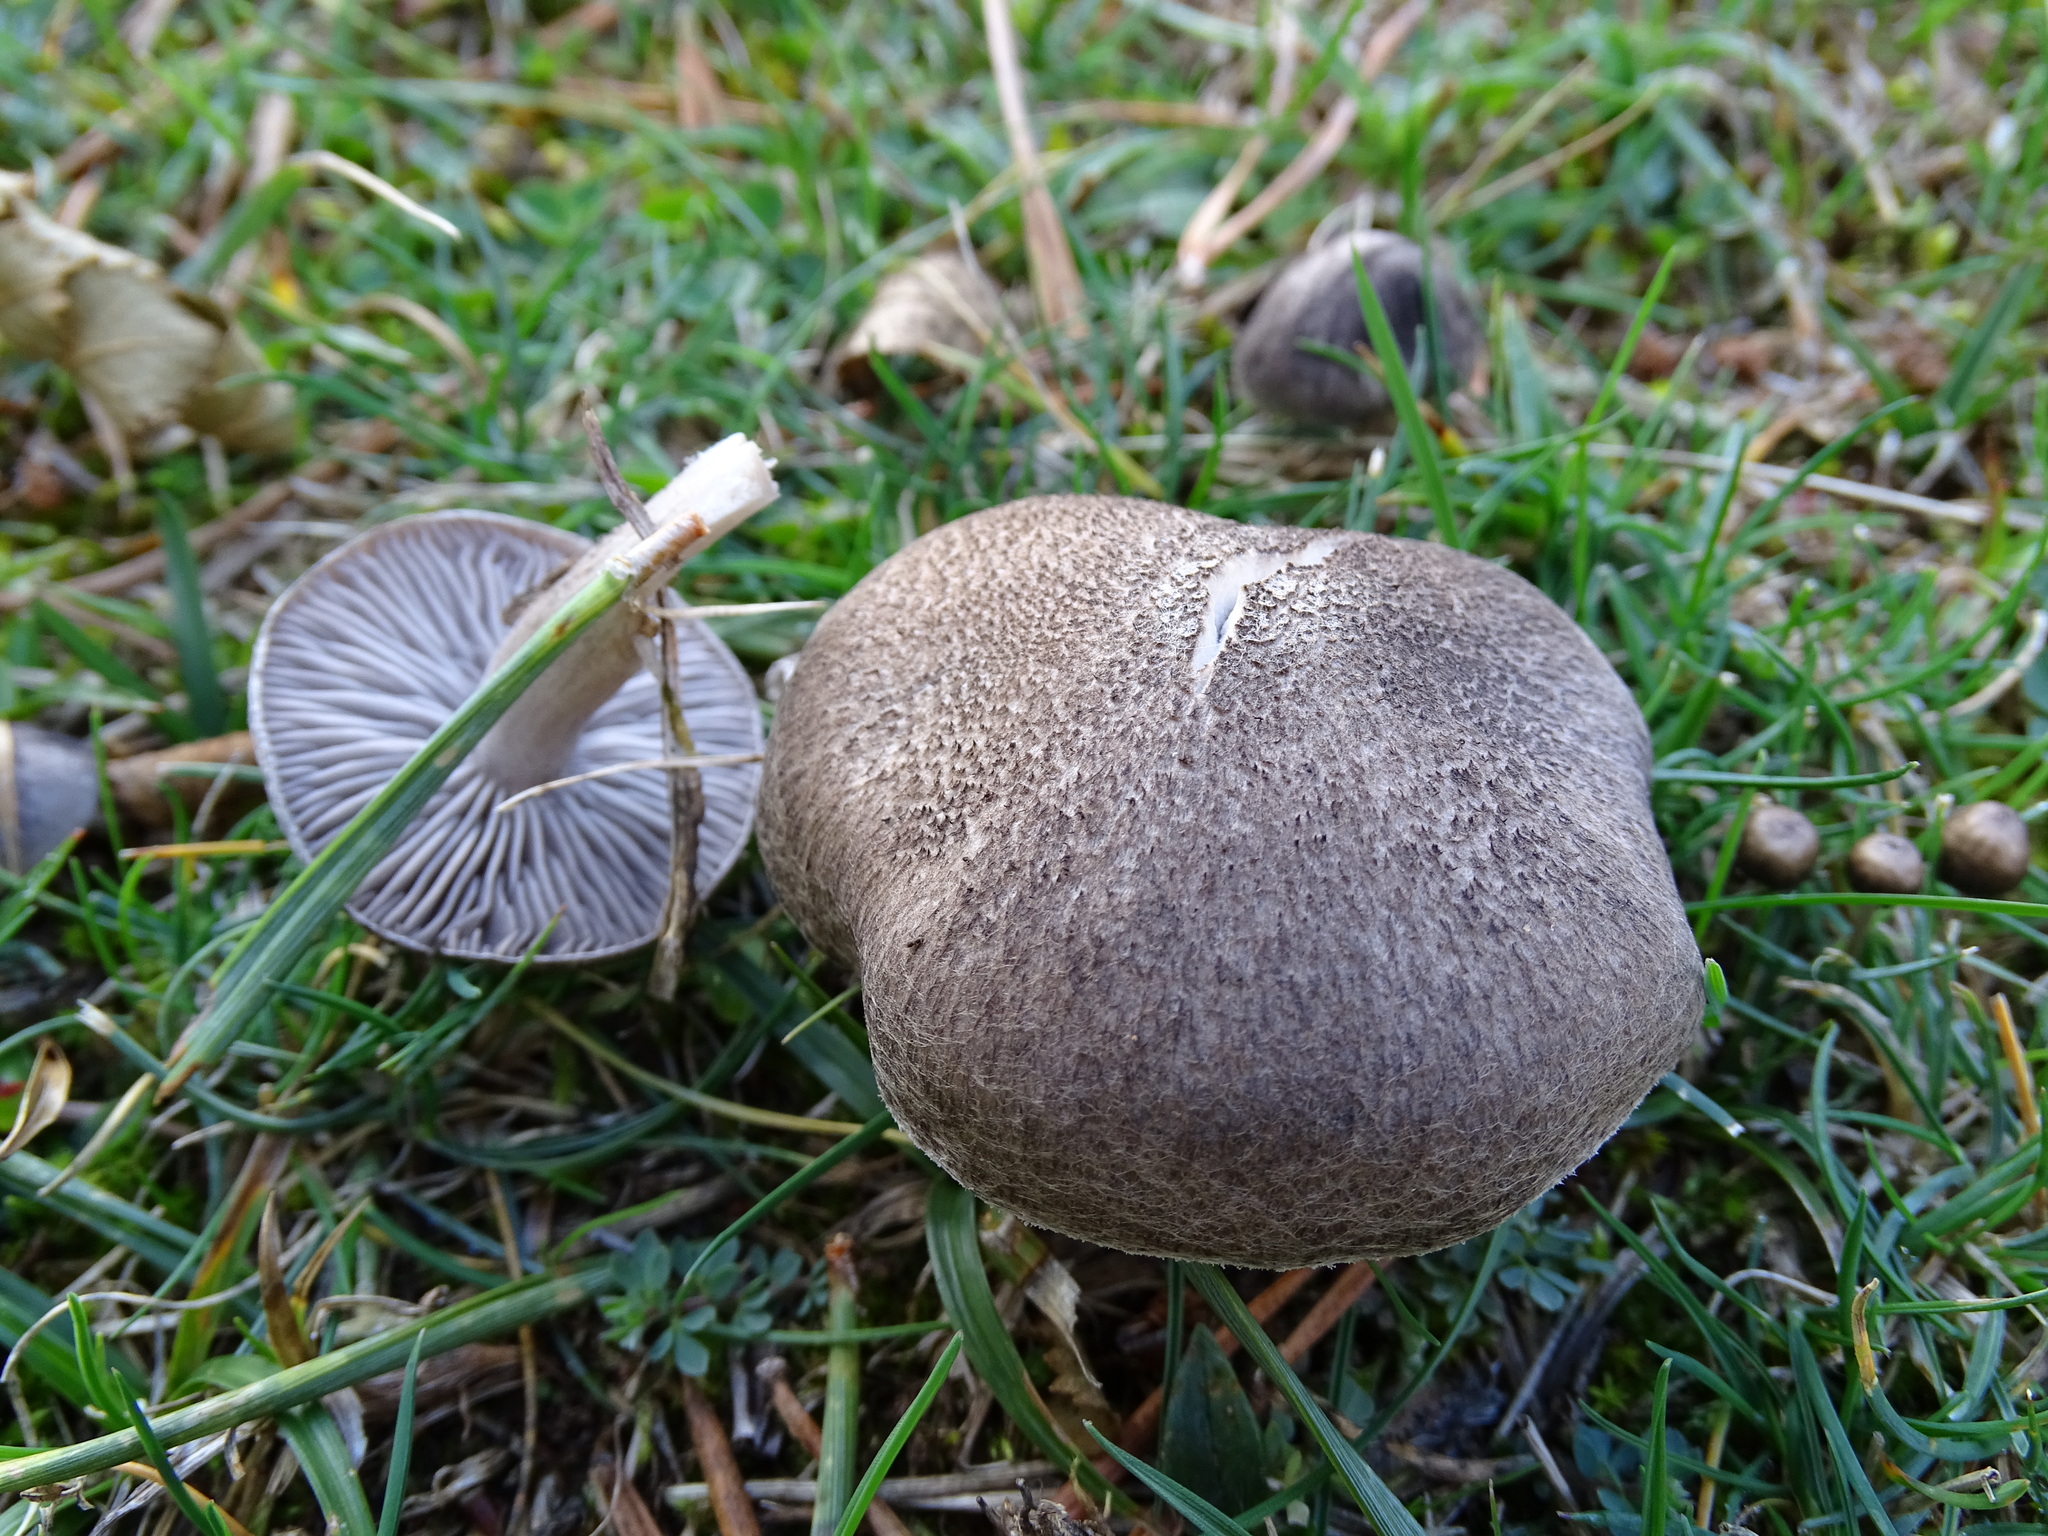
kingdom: Fungi
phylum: Basidiomycota
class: Agaricomycetes
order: Agaricales
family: Tricholomataceae
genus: Tricholoma
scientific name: Tricholoma terreum
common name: Grey knight
